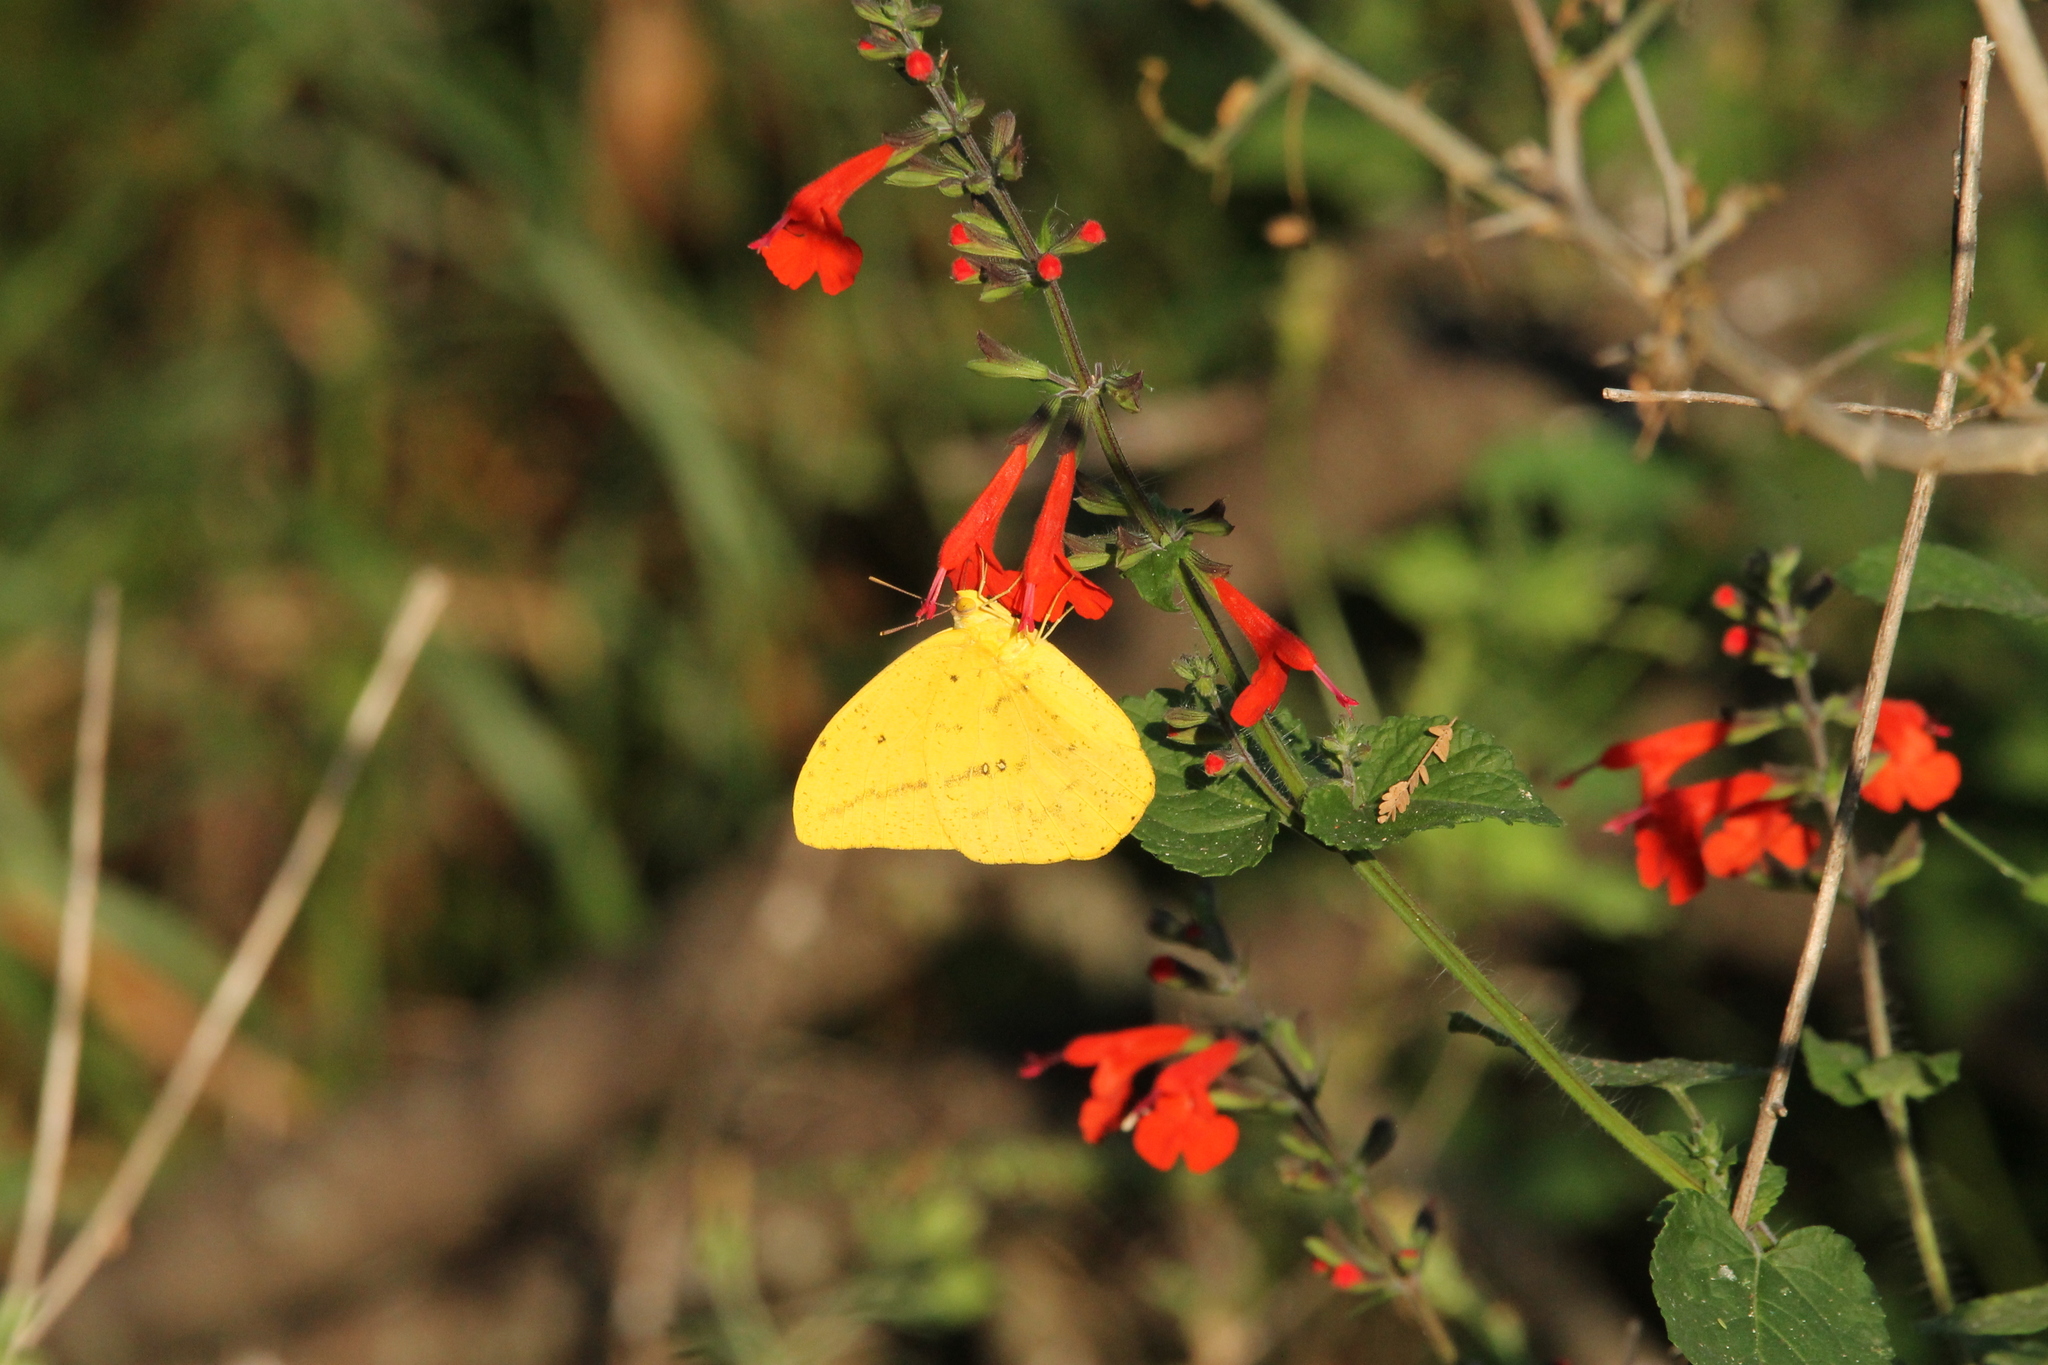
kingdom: Animalia
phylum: Arthropoda
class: Insecta
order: Lepidoptera
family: Pieridae
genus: Phoebis
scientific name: Phoebis agarithe
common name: Large orange sulphur
